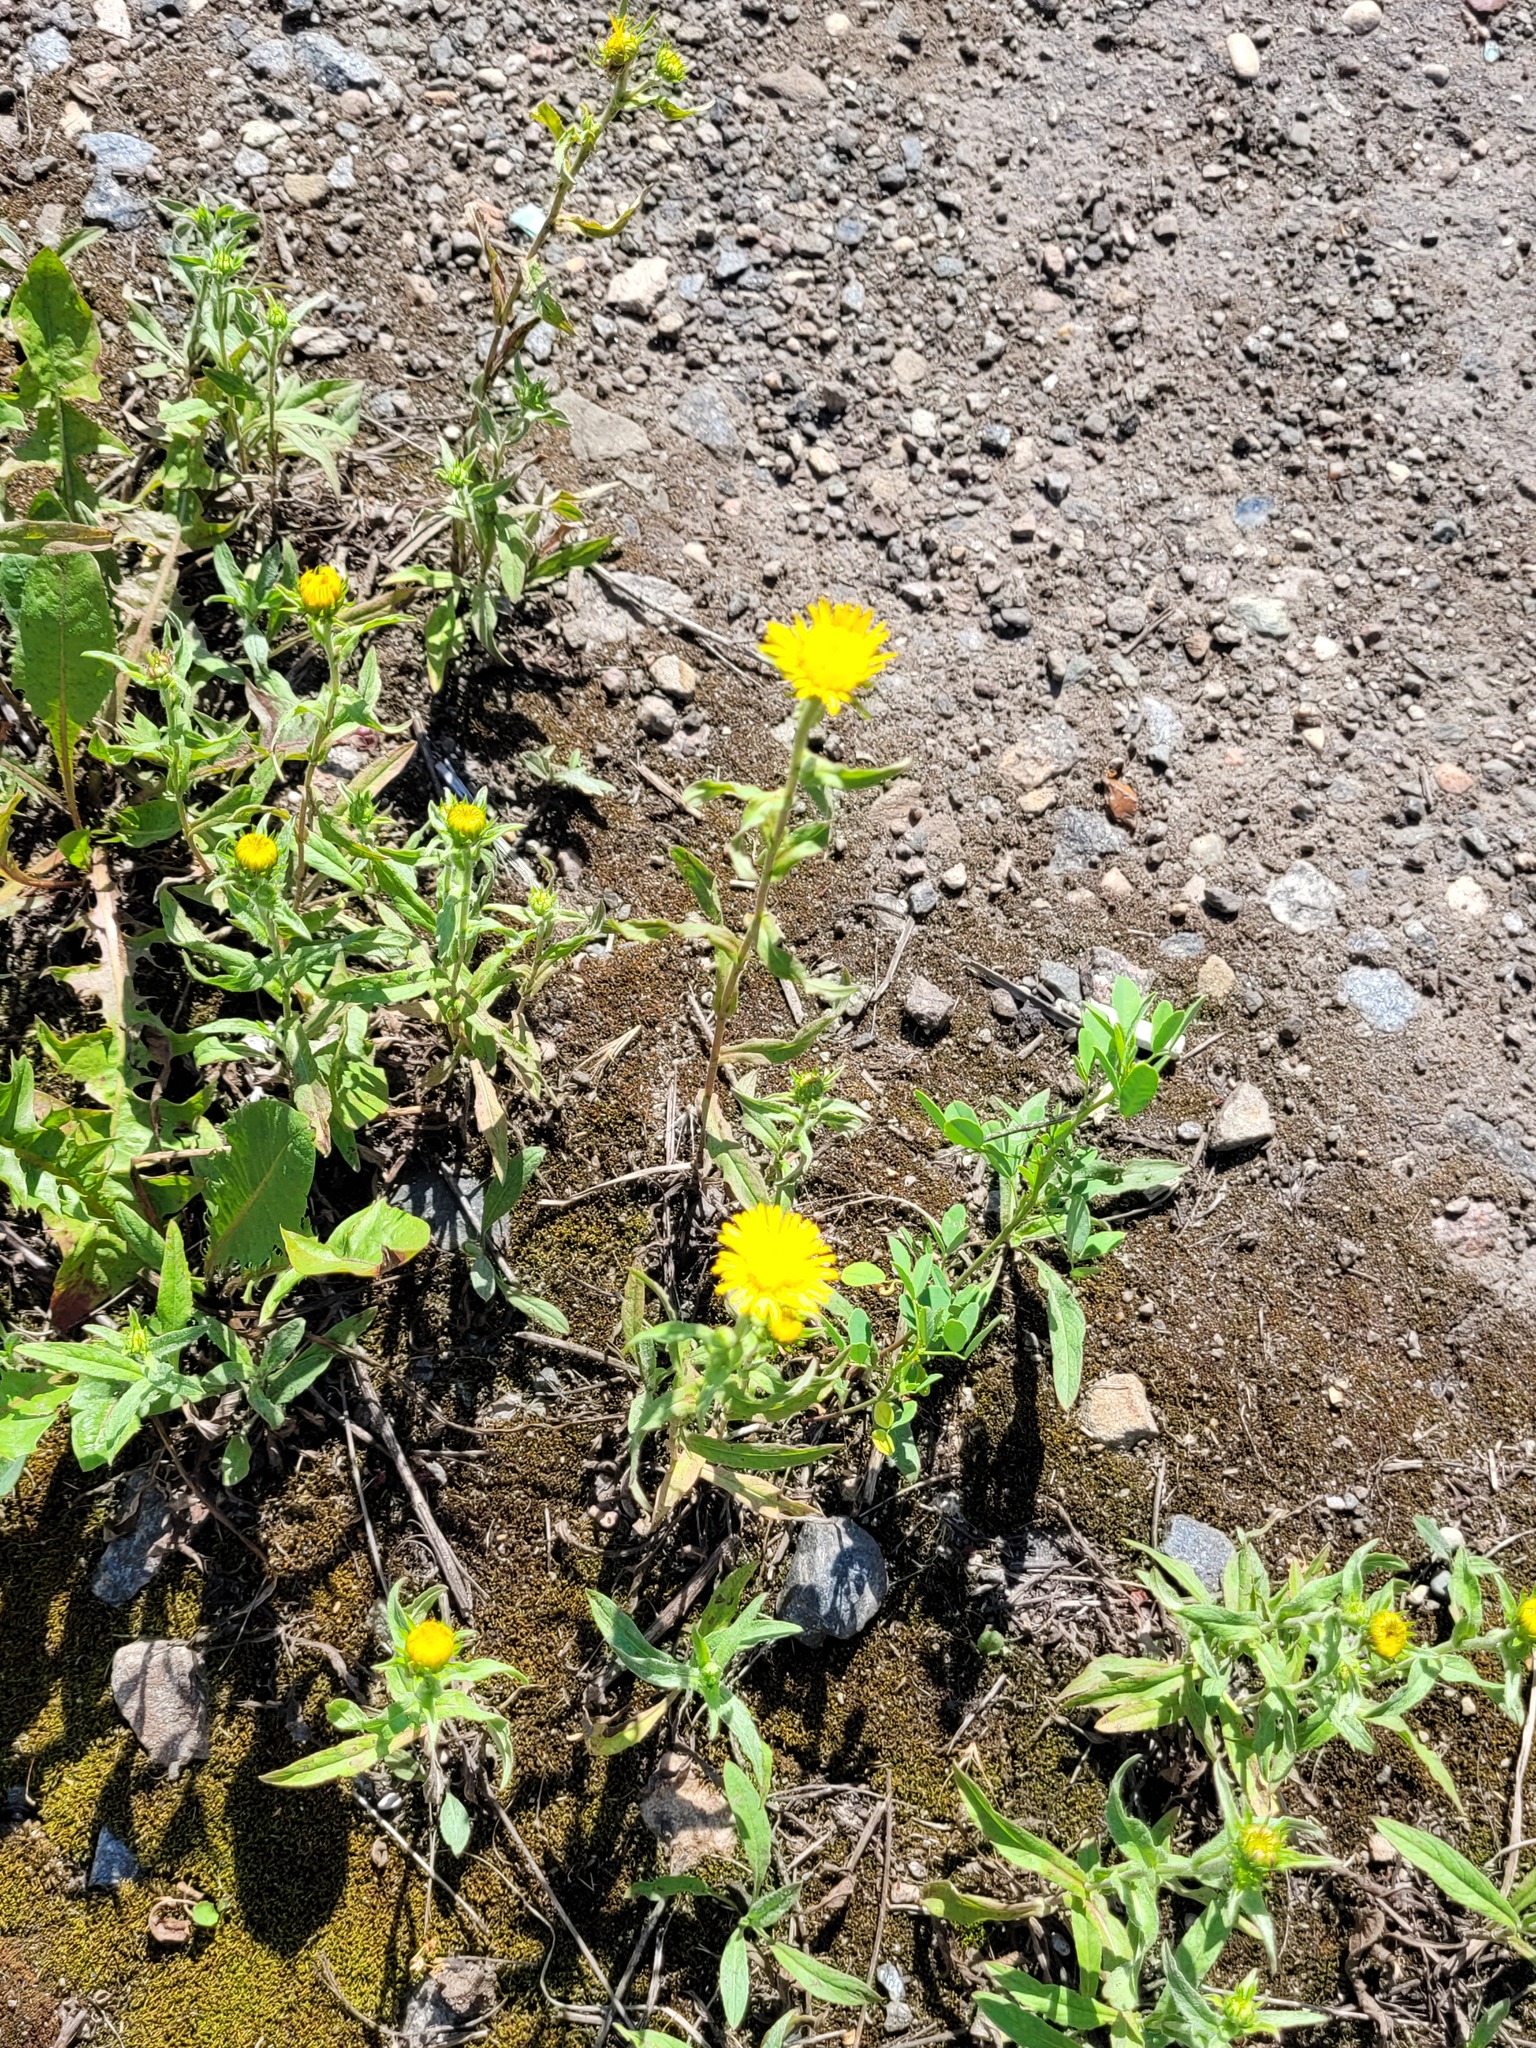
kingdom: Plantae
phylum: Tracheophyta
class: Magnoliopsida
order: Asterales
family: Asteraceae
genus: Pentanema
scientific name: Pentanema britannicum
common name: British elecampane
